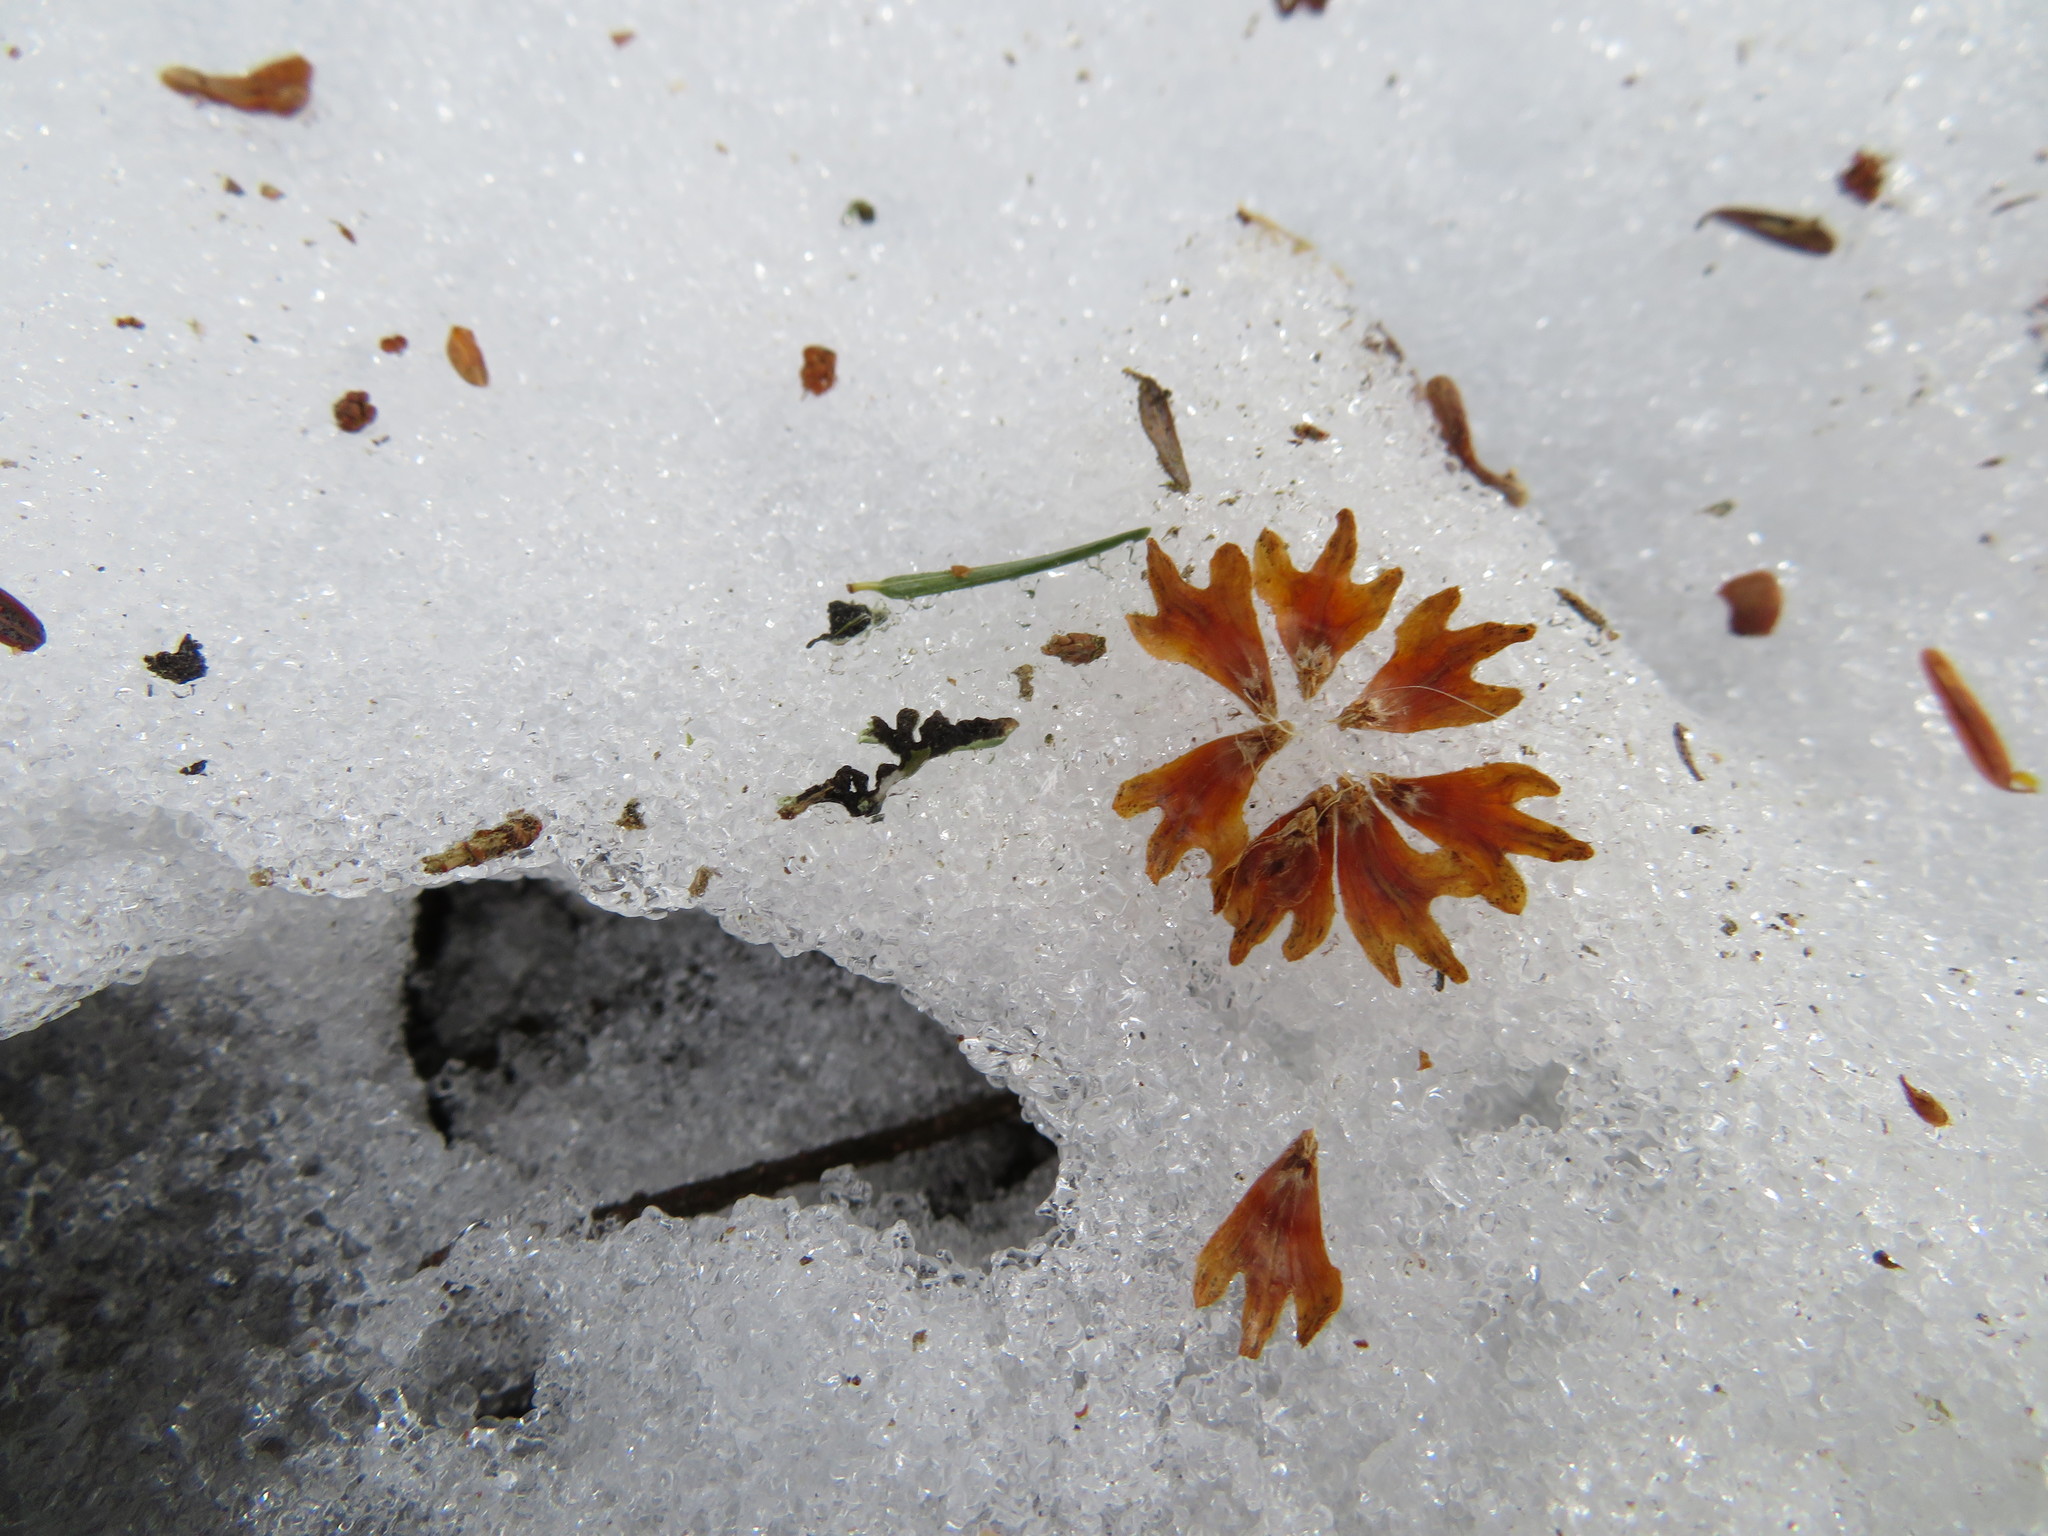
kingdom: Plantae
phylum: Tracheophyta
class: Magnoliopsida
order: Fagales
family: Betulaceae
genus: Betula
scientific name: Betula alleghaniensis
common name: Yellow birch
